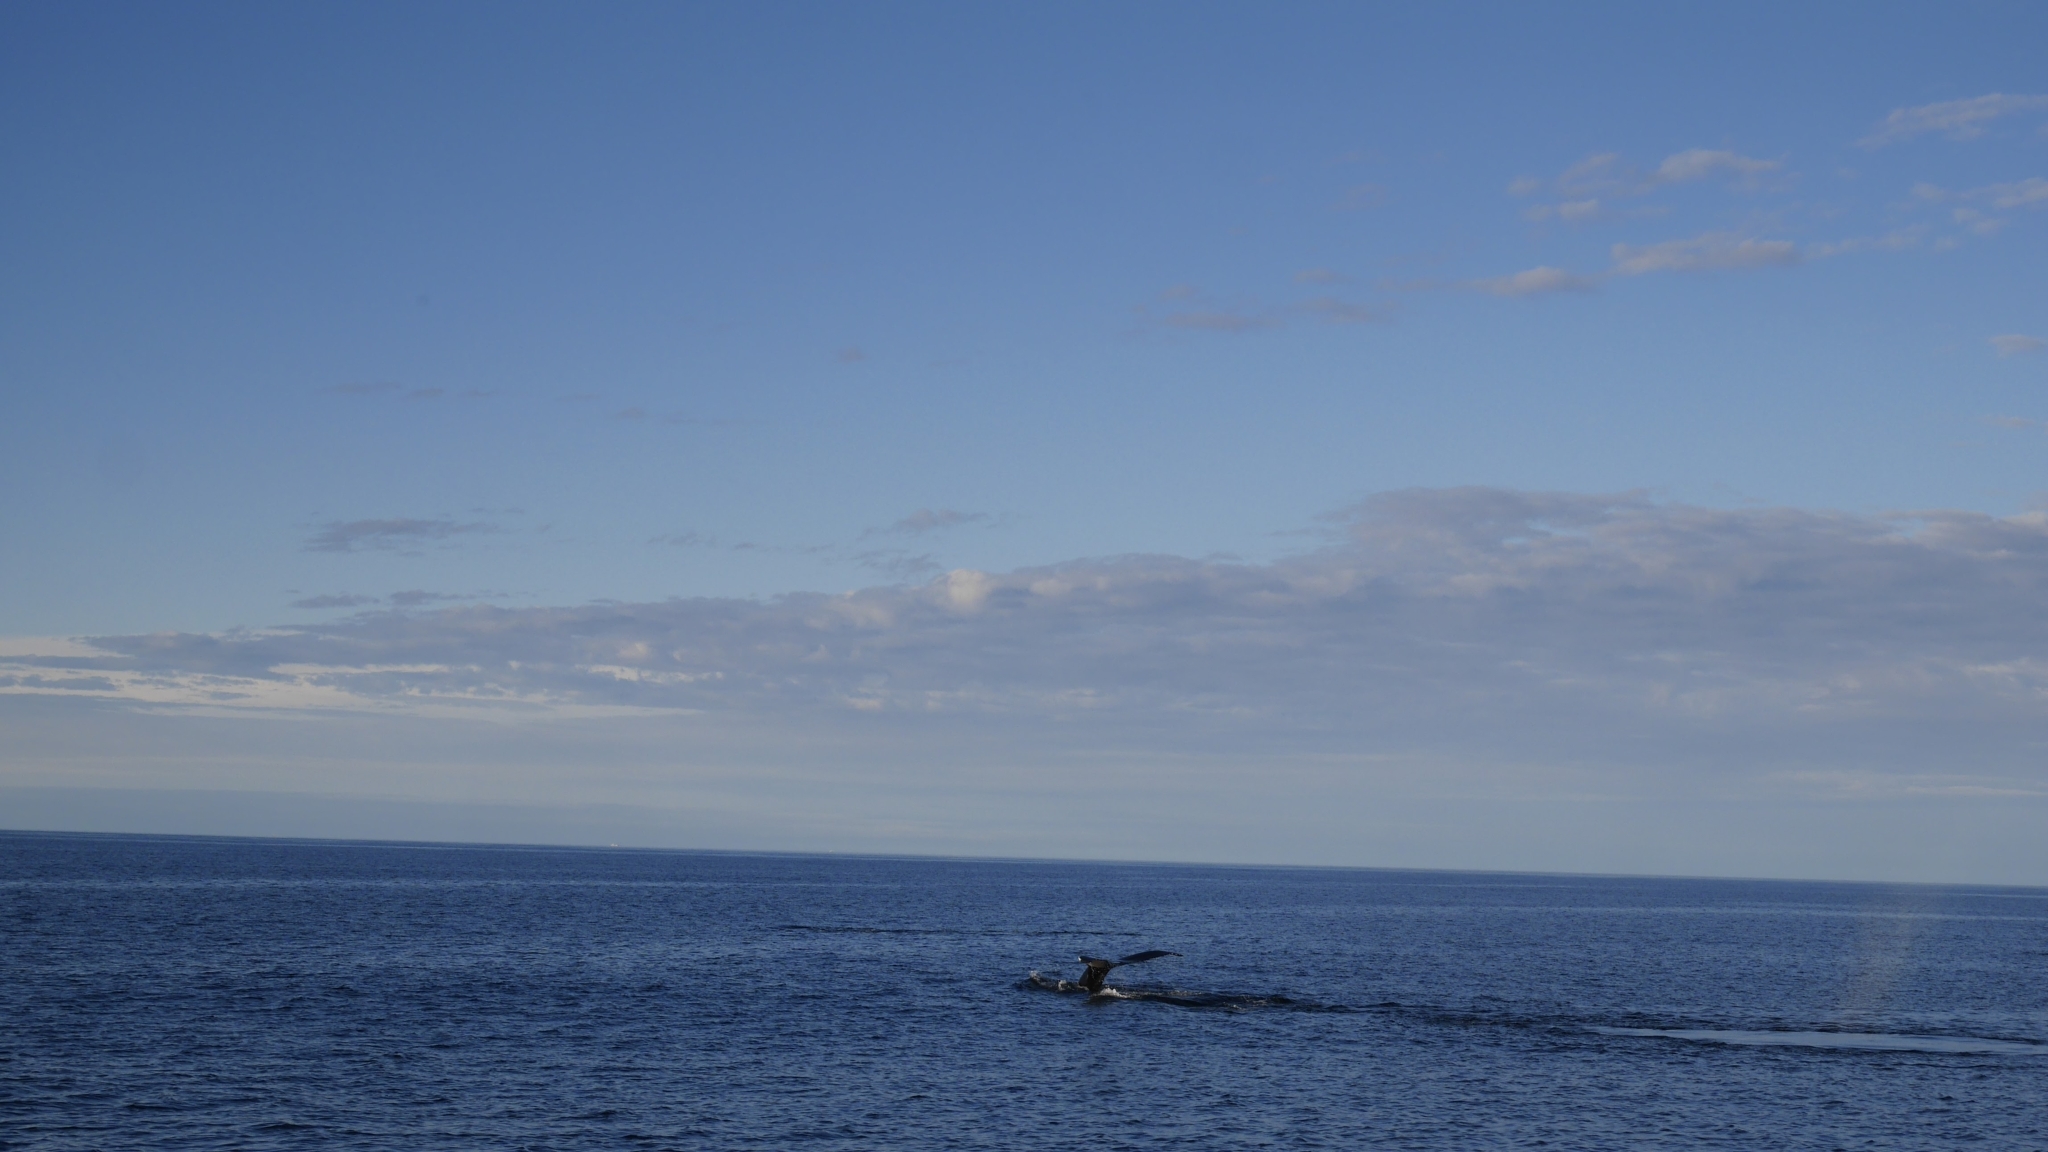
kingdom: Animalia
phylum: Chordata
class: Mammalia
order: Cetacea
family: Balaenopteridae
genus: Megaptera
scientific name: Megaptera novaeangliae
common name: Humpback whale
